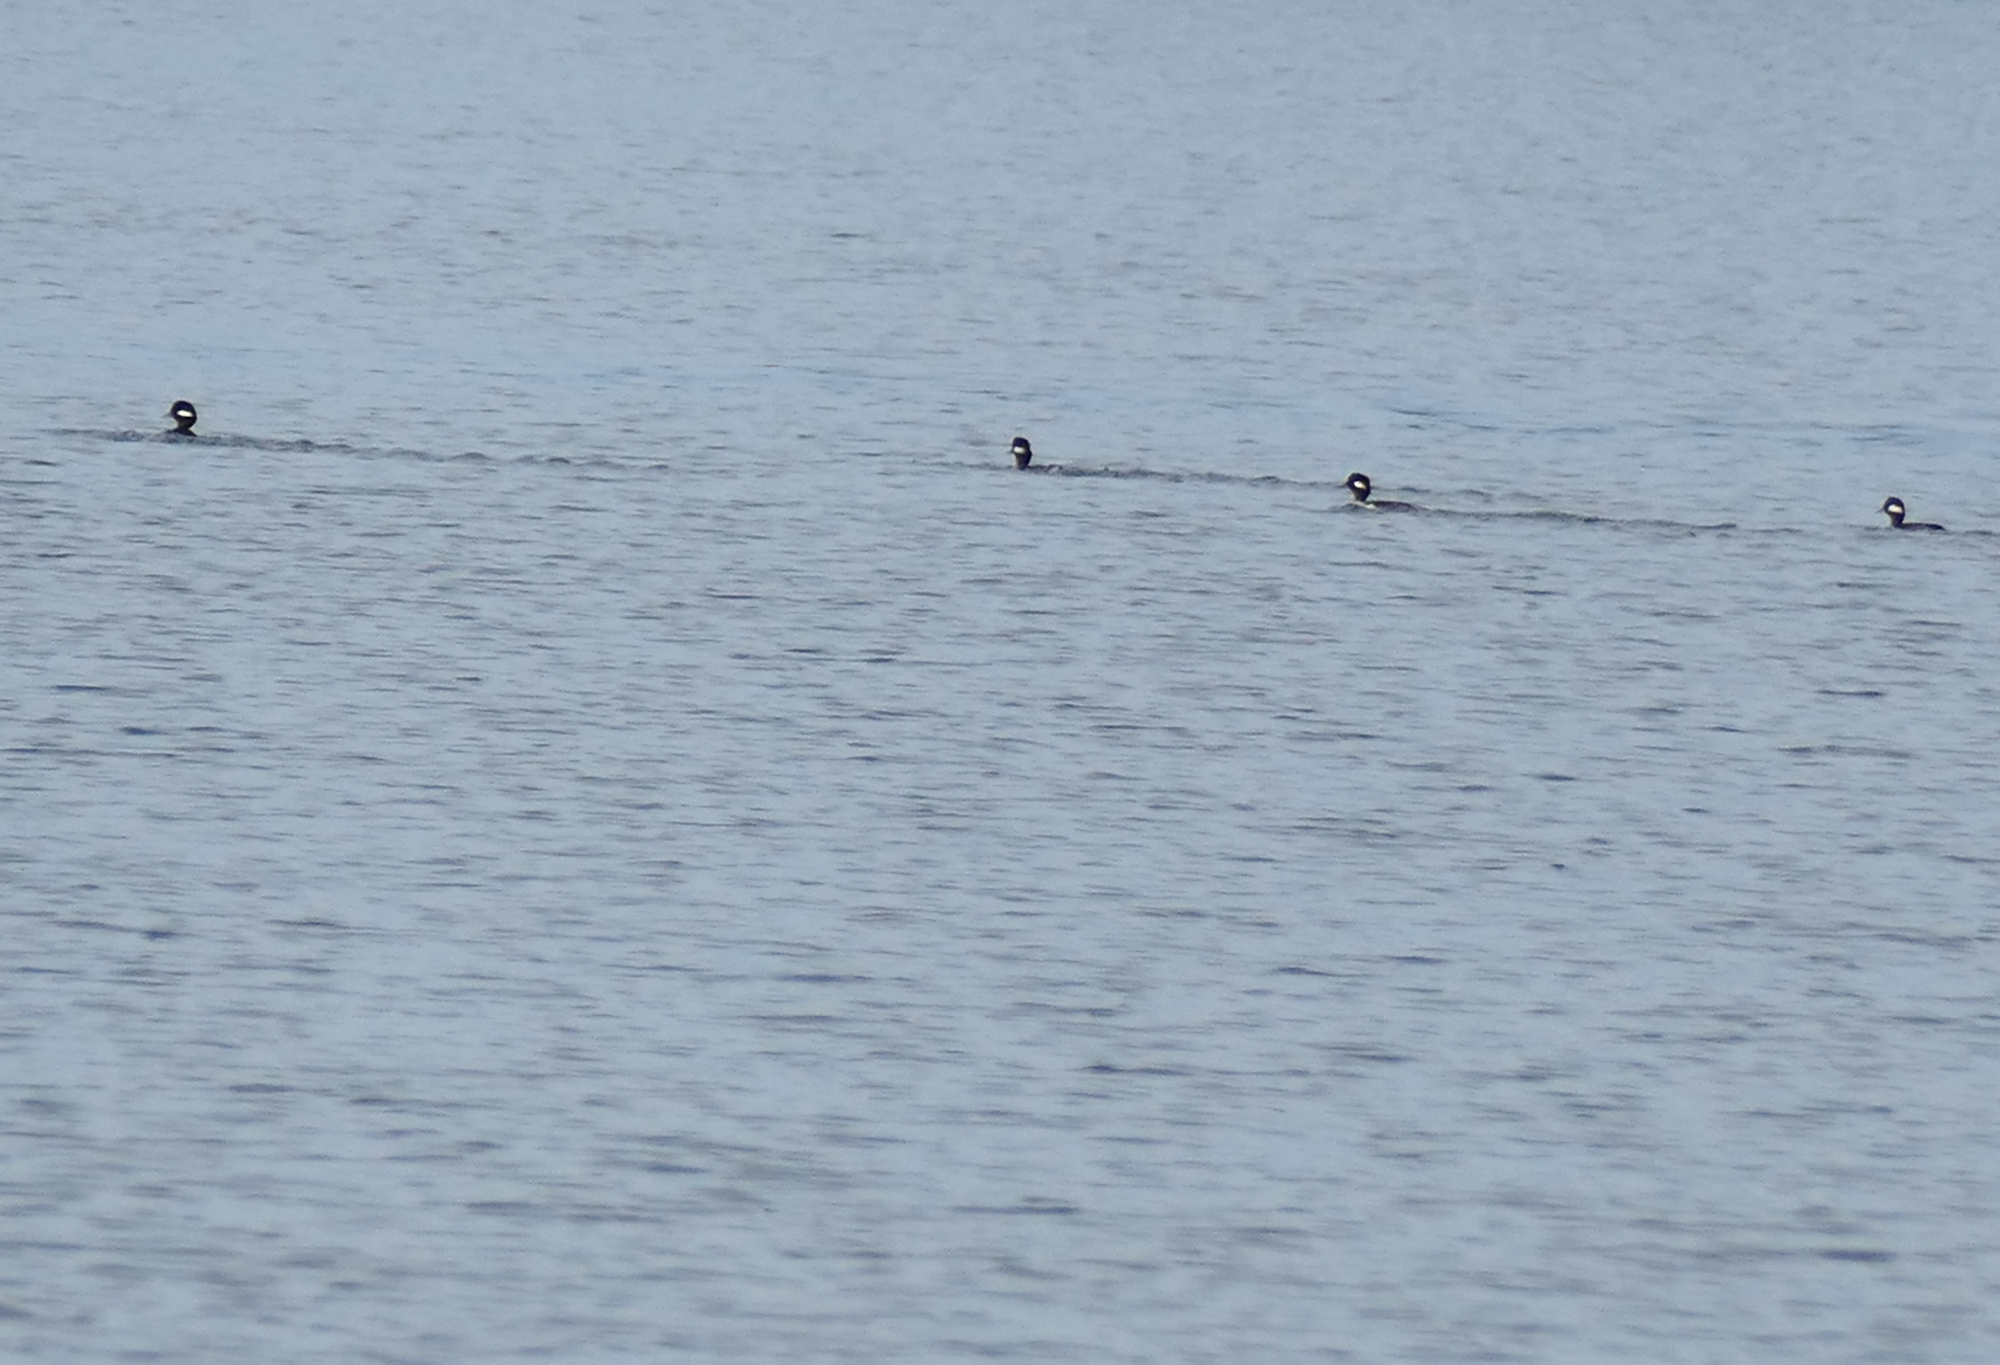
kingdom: Animalia
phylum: Chordata
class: Aves
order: Anseriformes
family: Anatidae
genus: Bucephala
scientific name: Bucephala albeola
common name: Bufflehead
